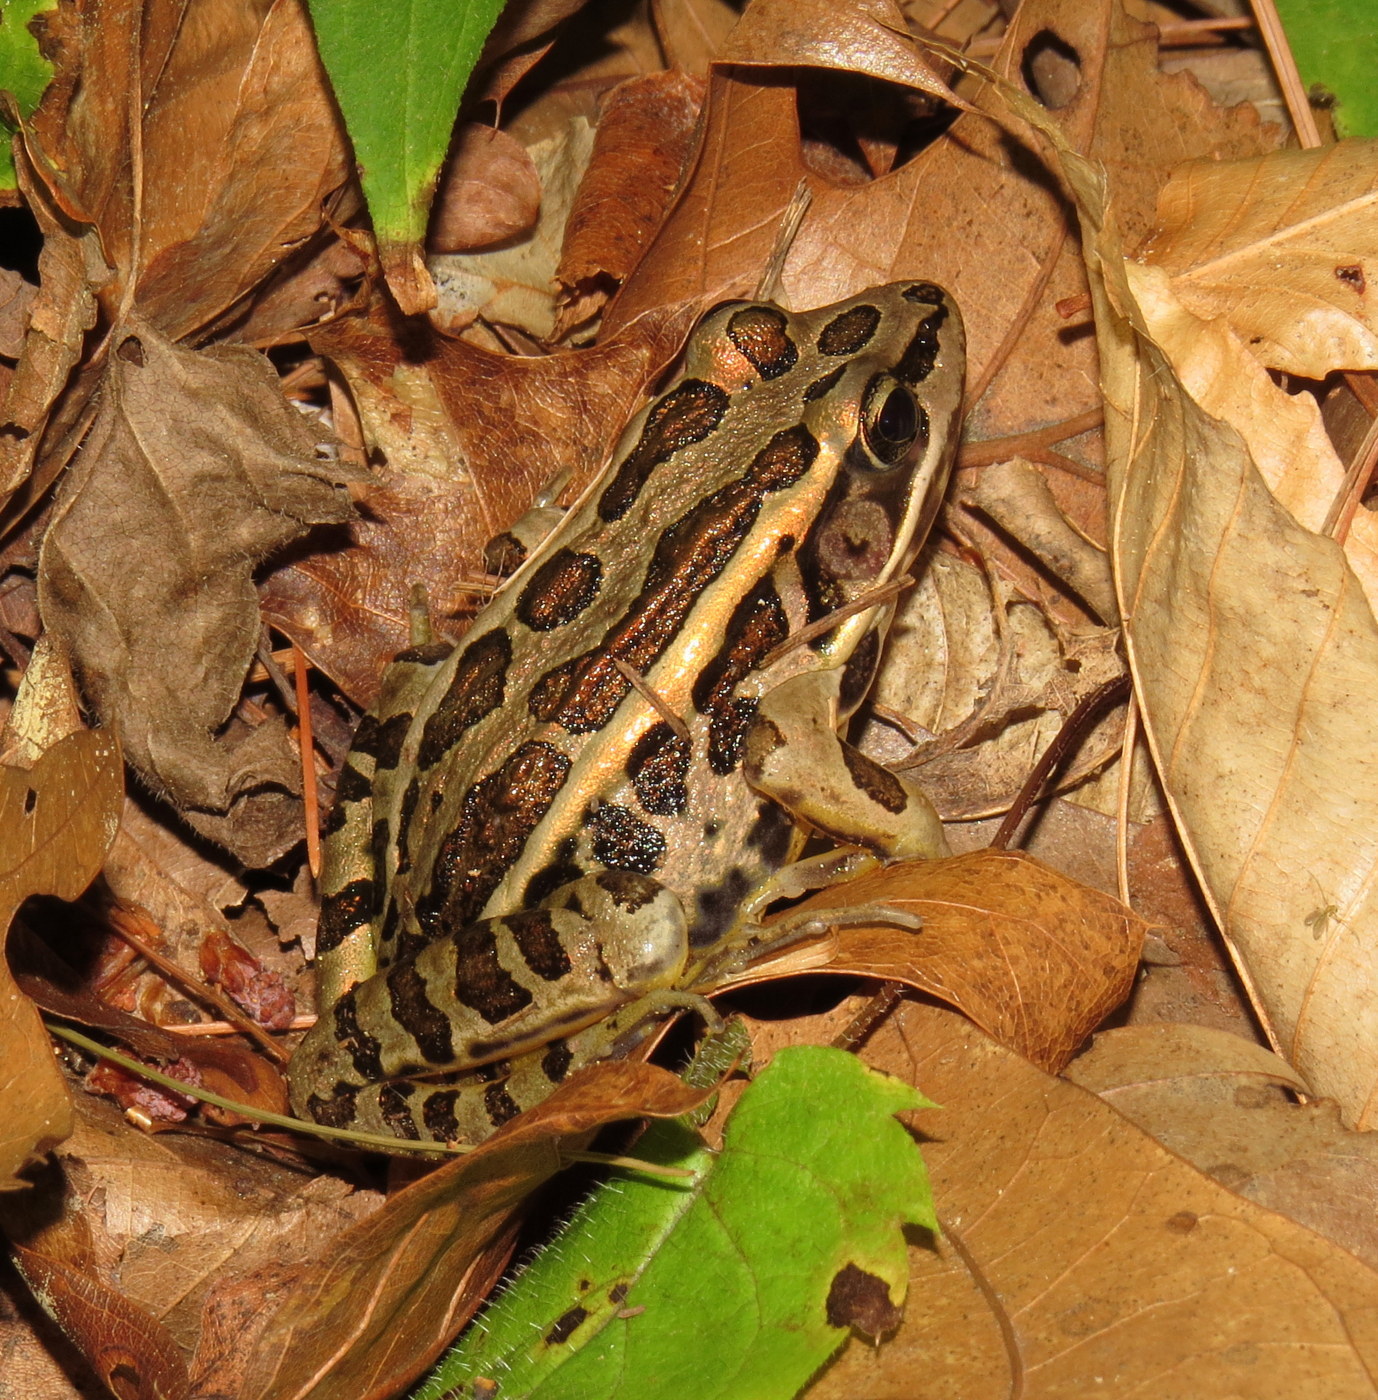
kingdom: Animalia
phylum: Chordata
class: Amphibia
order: Anura
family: Ranidae
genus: Lithobates
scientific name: Lithobates palustris
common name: Pickerel frog
